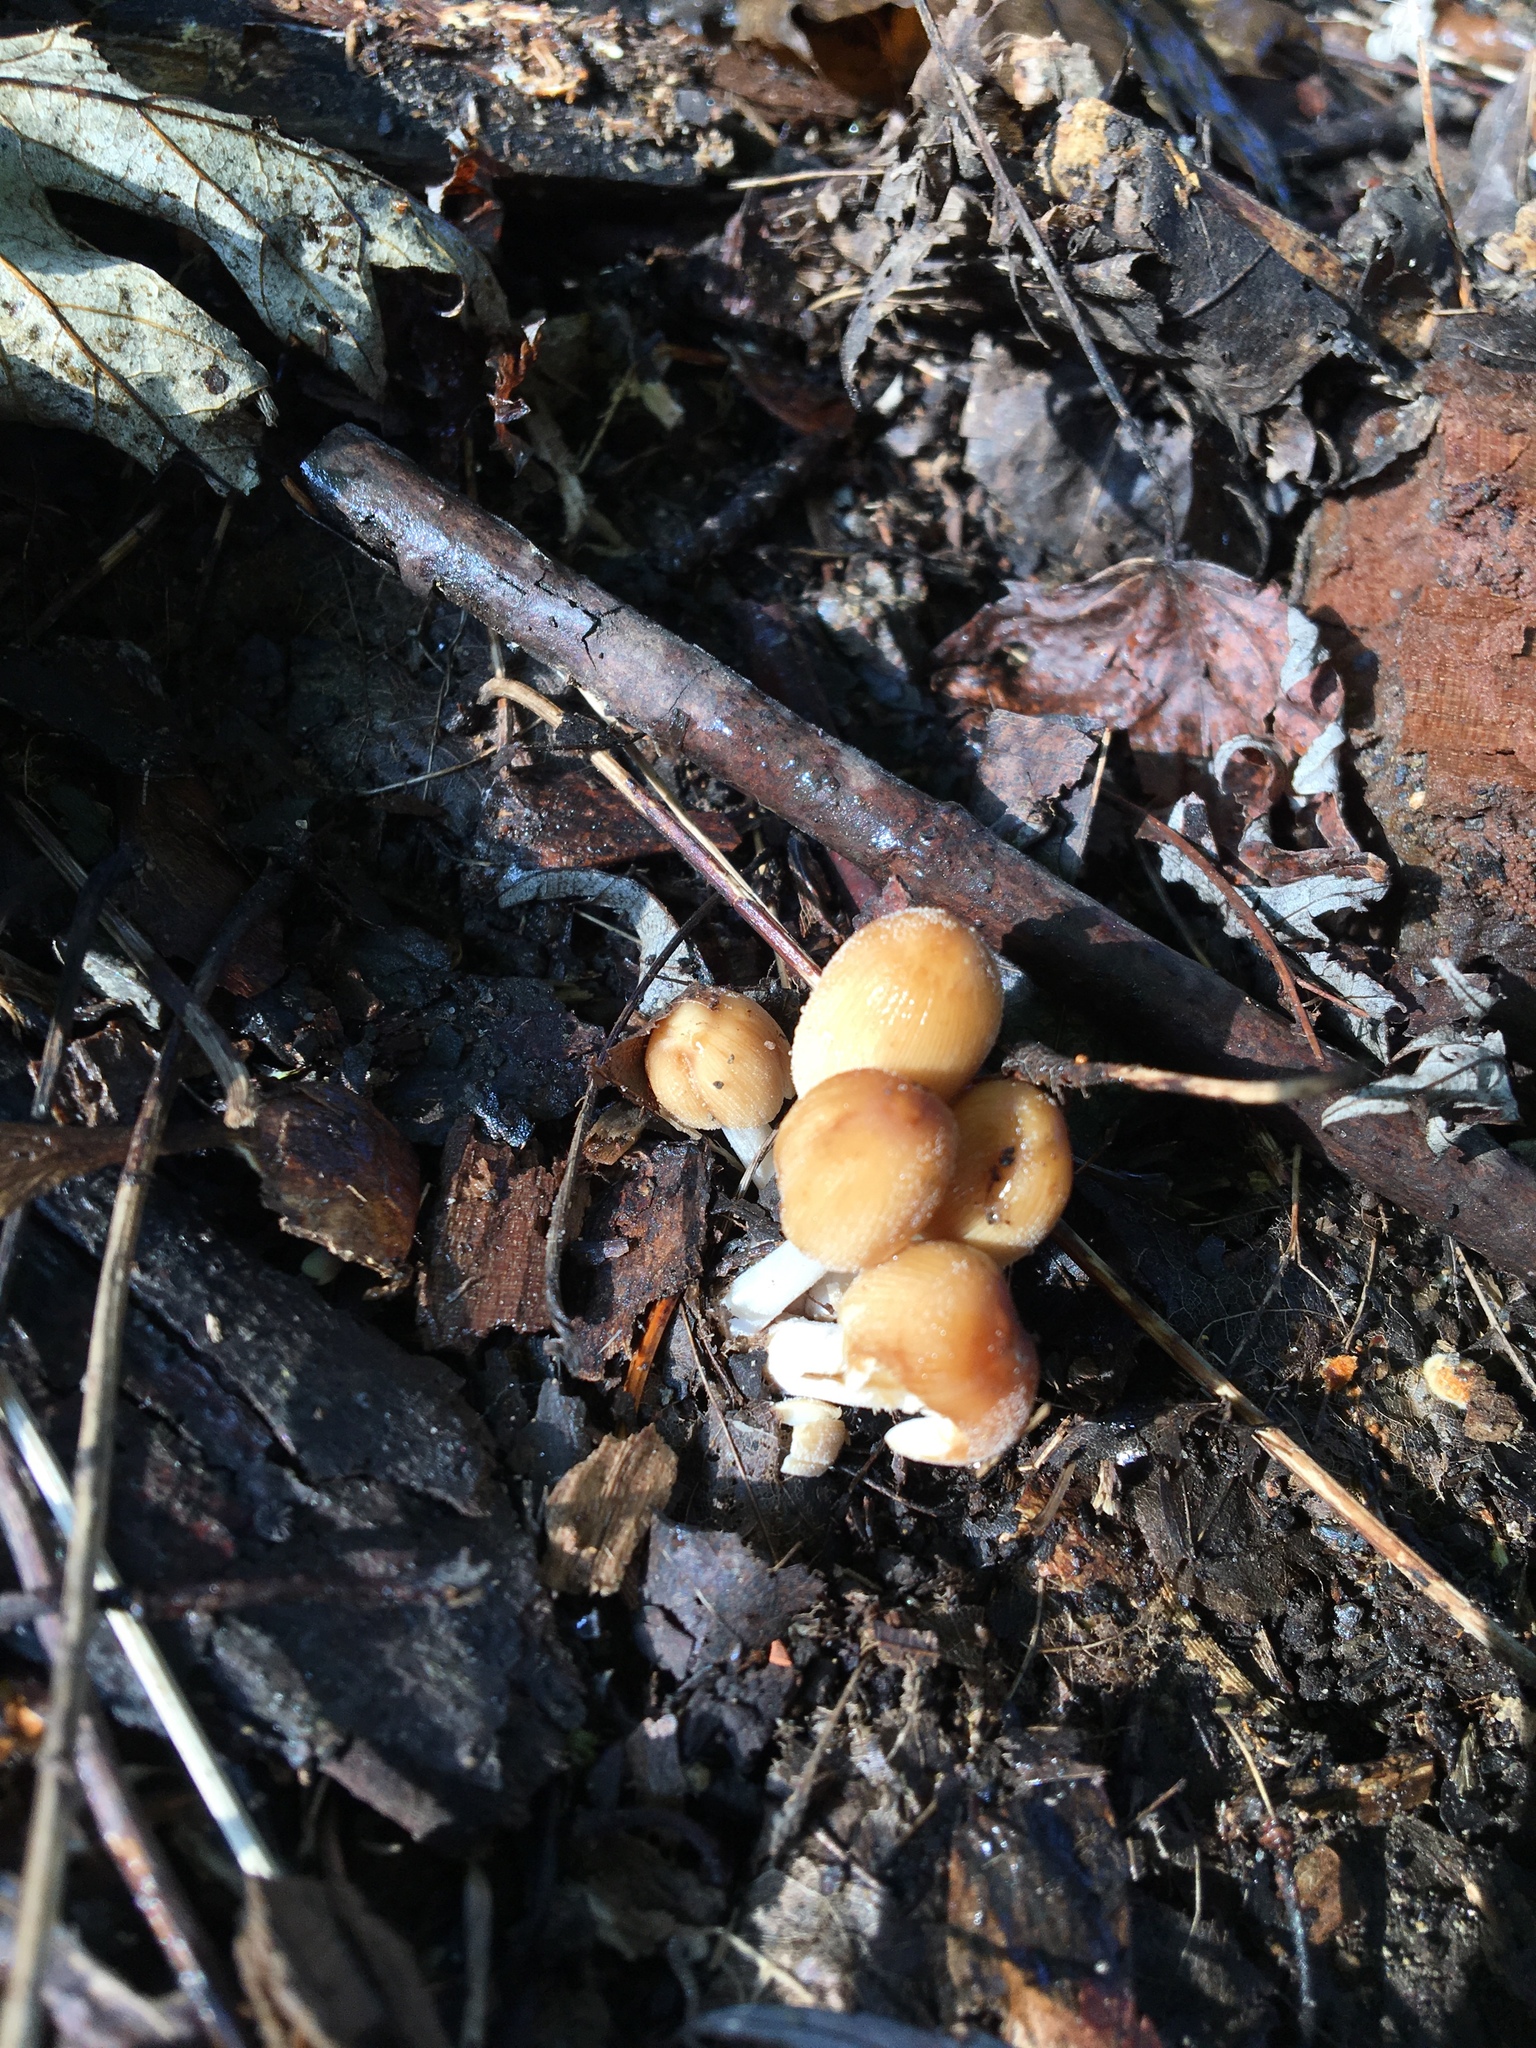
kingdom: Fungi
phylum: Basidiomycota
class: Agaricomycetes
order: Agaricales
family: Psathyrellaceae
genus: Coprinellus
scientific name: Coprinellus micaceus
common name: Glistening ink-cap
